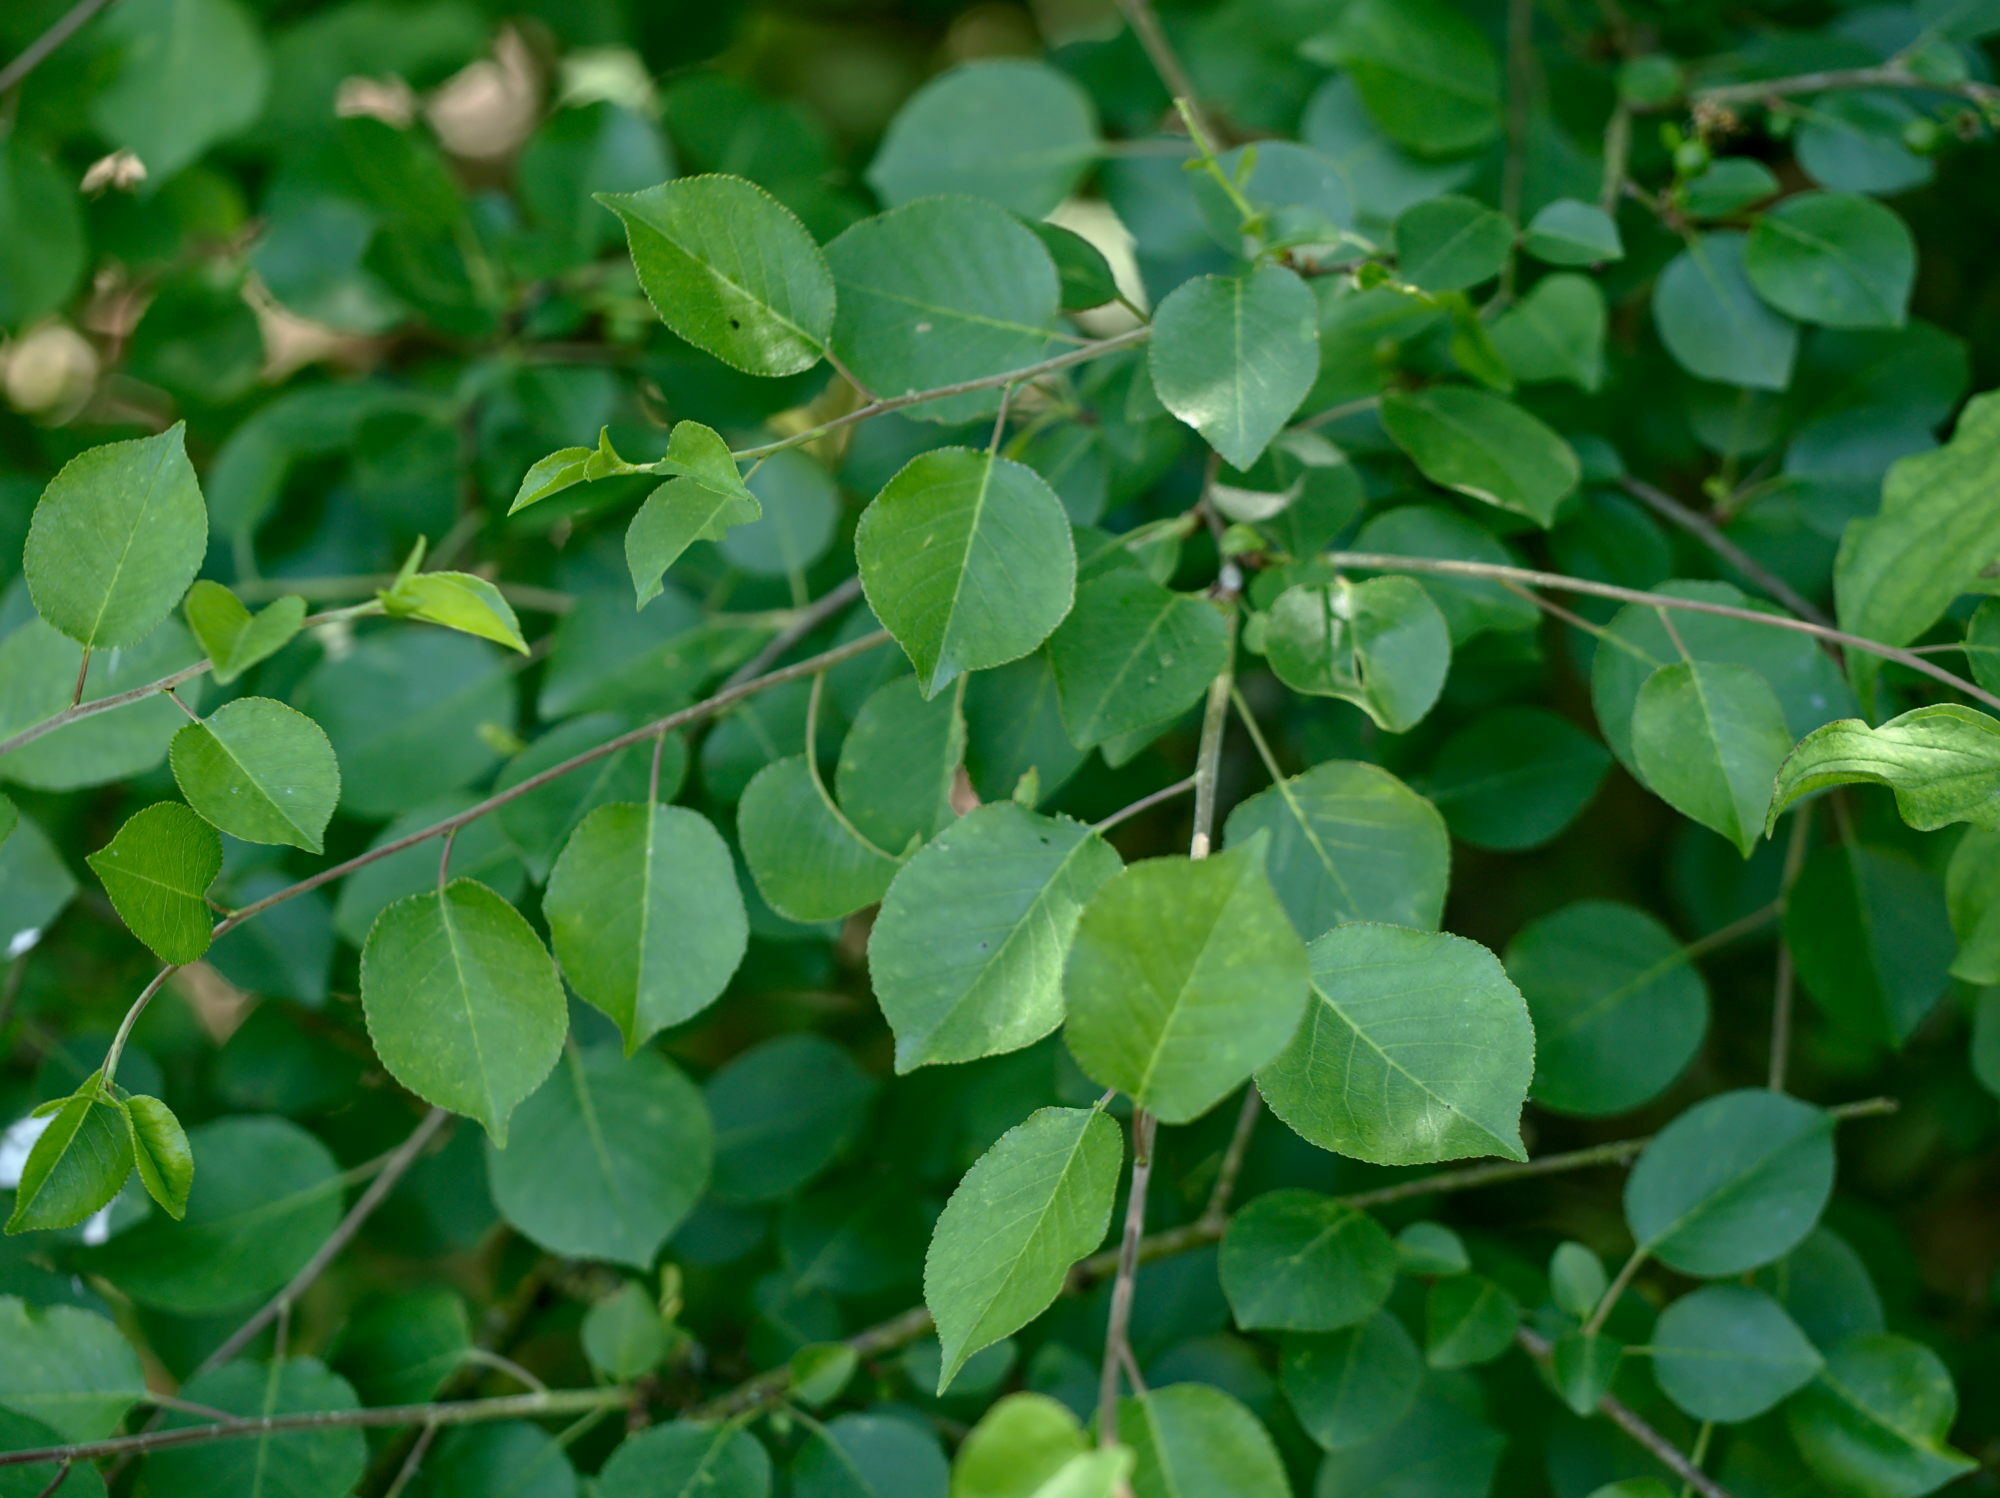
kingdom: Plantae
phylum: Tracheophyta
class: Magnoliopsida
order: Rosales
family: Rosaceae
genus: Prunus
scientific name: Prunus mahaleb
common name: Mahaleb cherry
